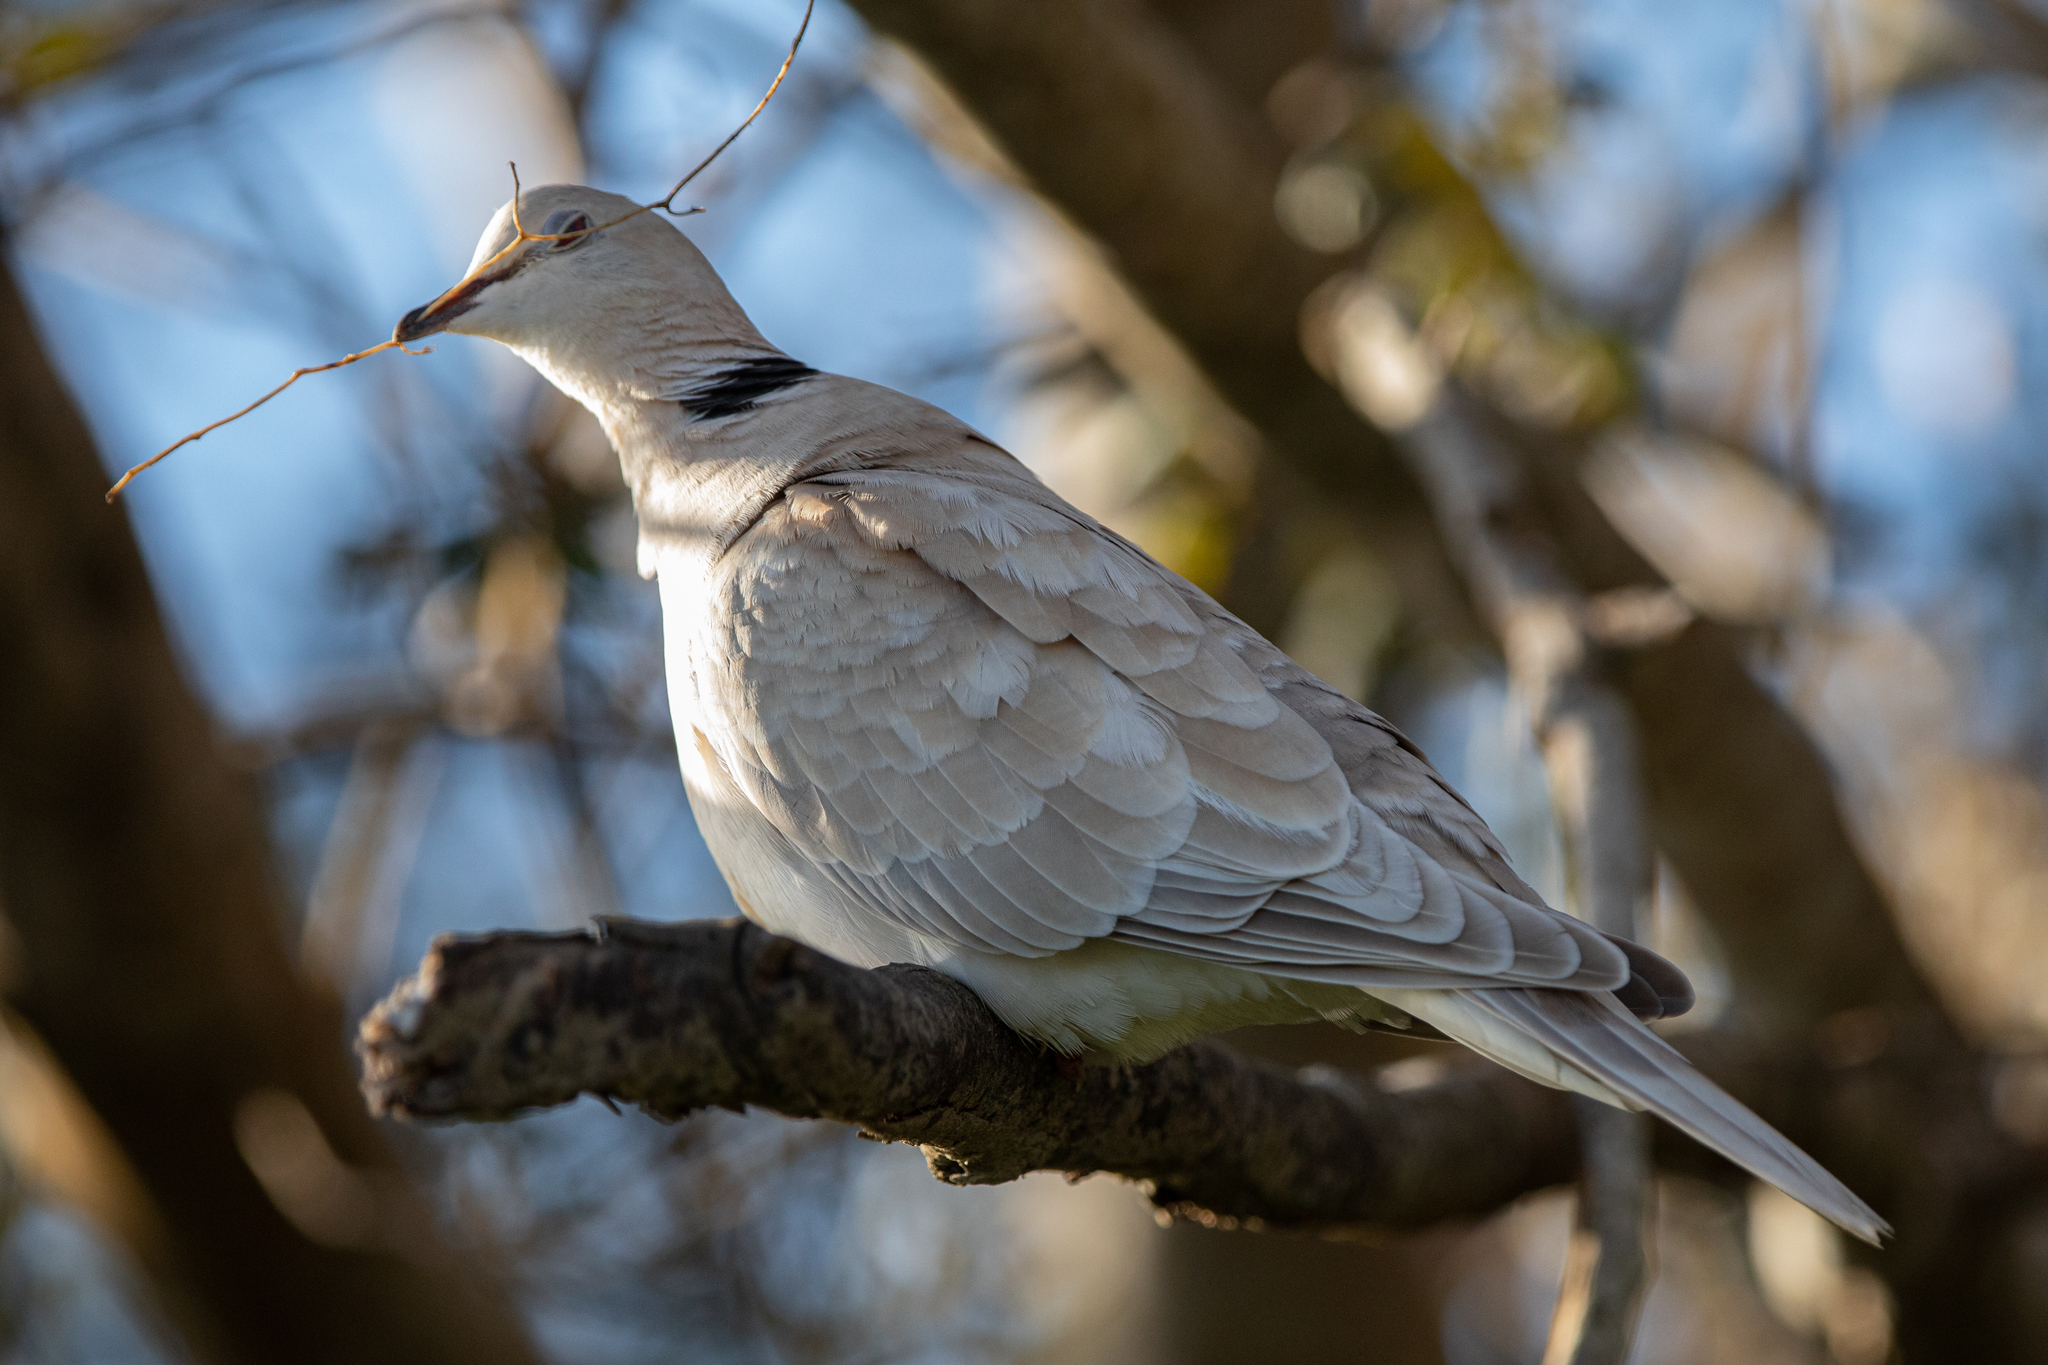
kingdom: Animalia
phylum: Chordata
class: Aves
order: Columbiformes
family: Columbidae
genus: Streptopelia
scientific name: Streptopelia roseogrisea
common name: African collared dove
